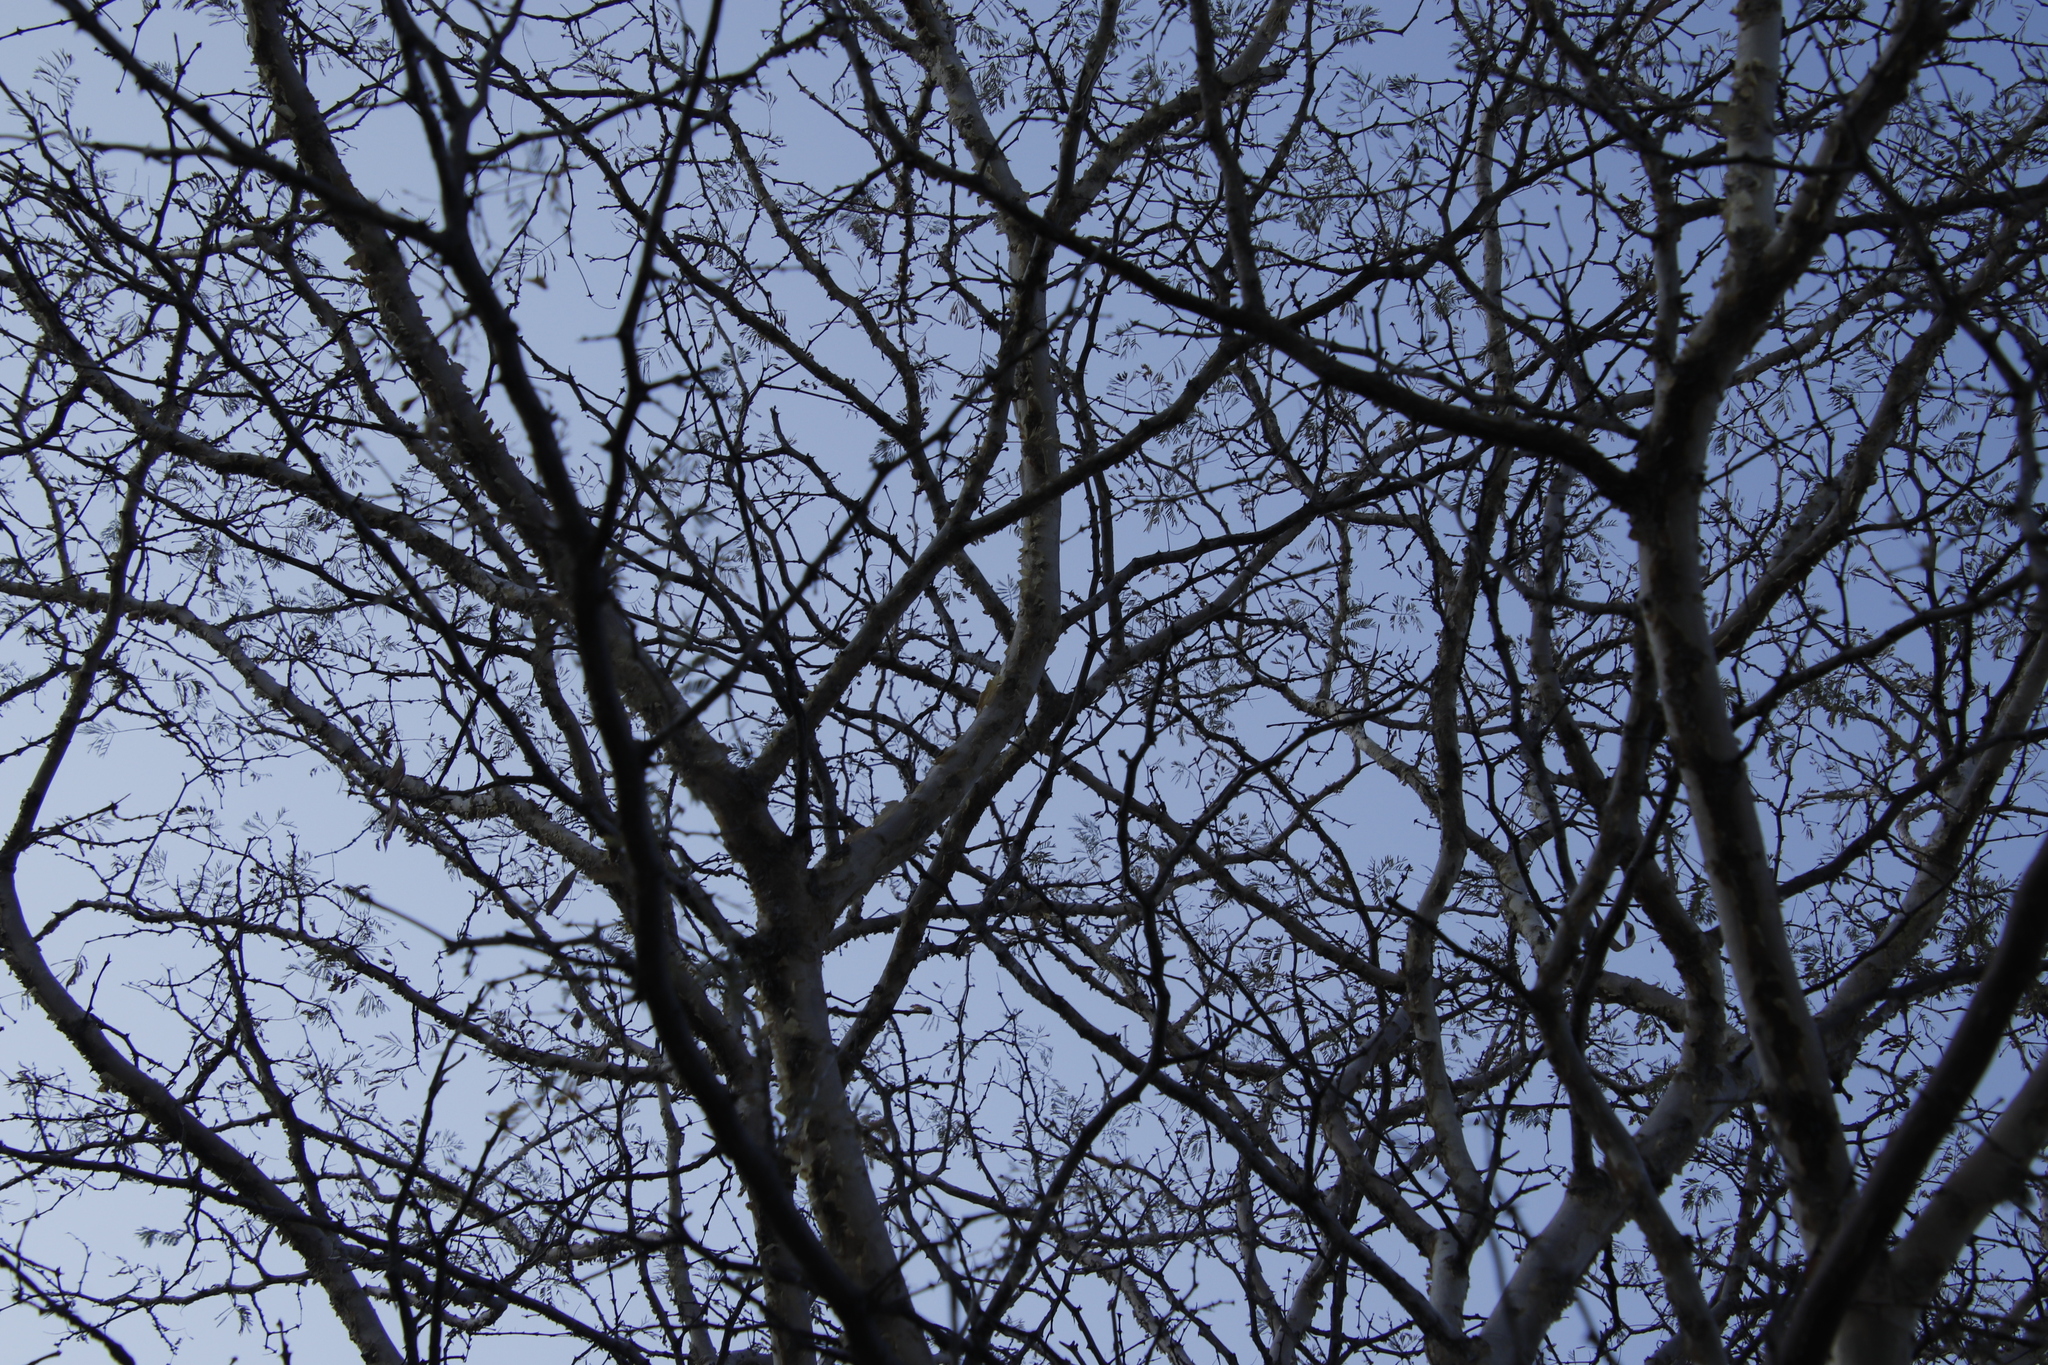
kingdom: Plantae
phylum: Tracheophyta
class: Magnoliopsida
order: Fabales
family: Fabaceae
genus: Senegalia
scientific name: Senegalia erubescens
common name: Bluethorn
